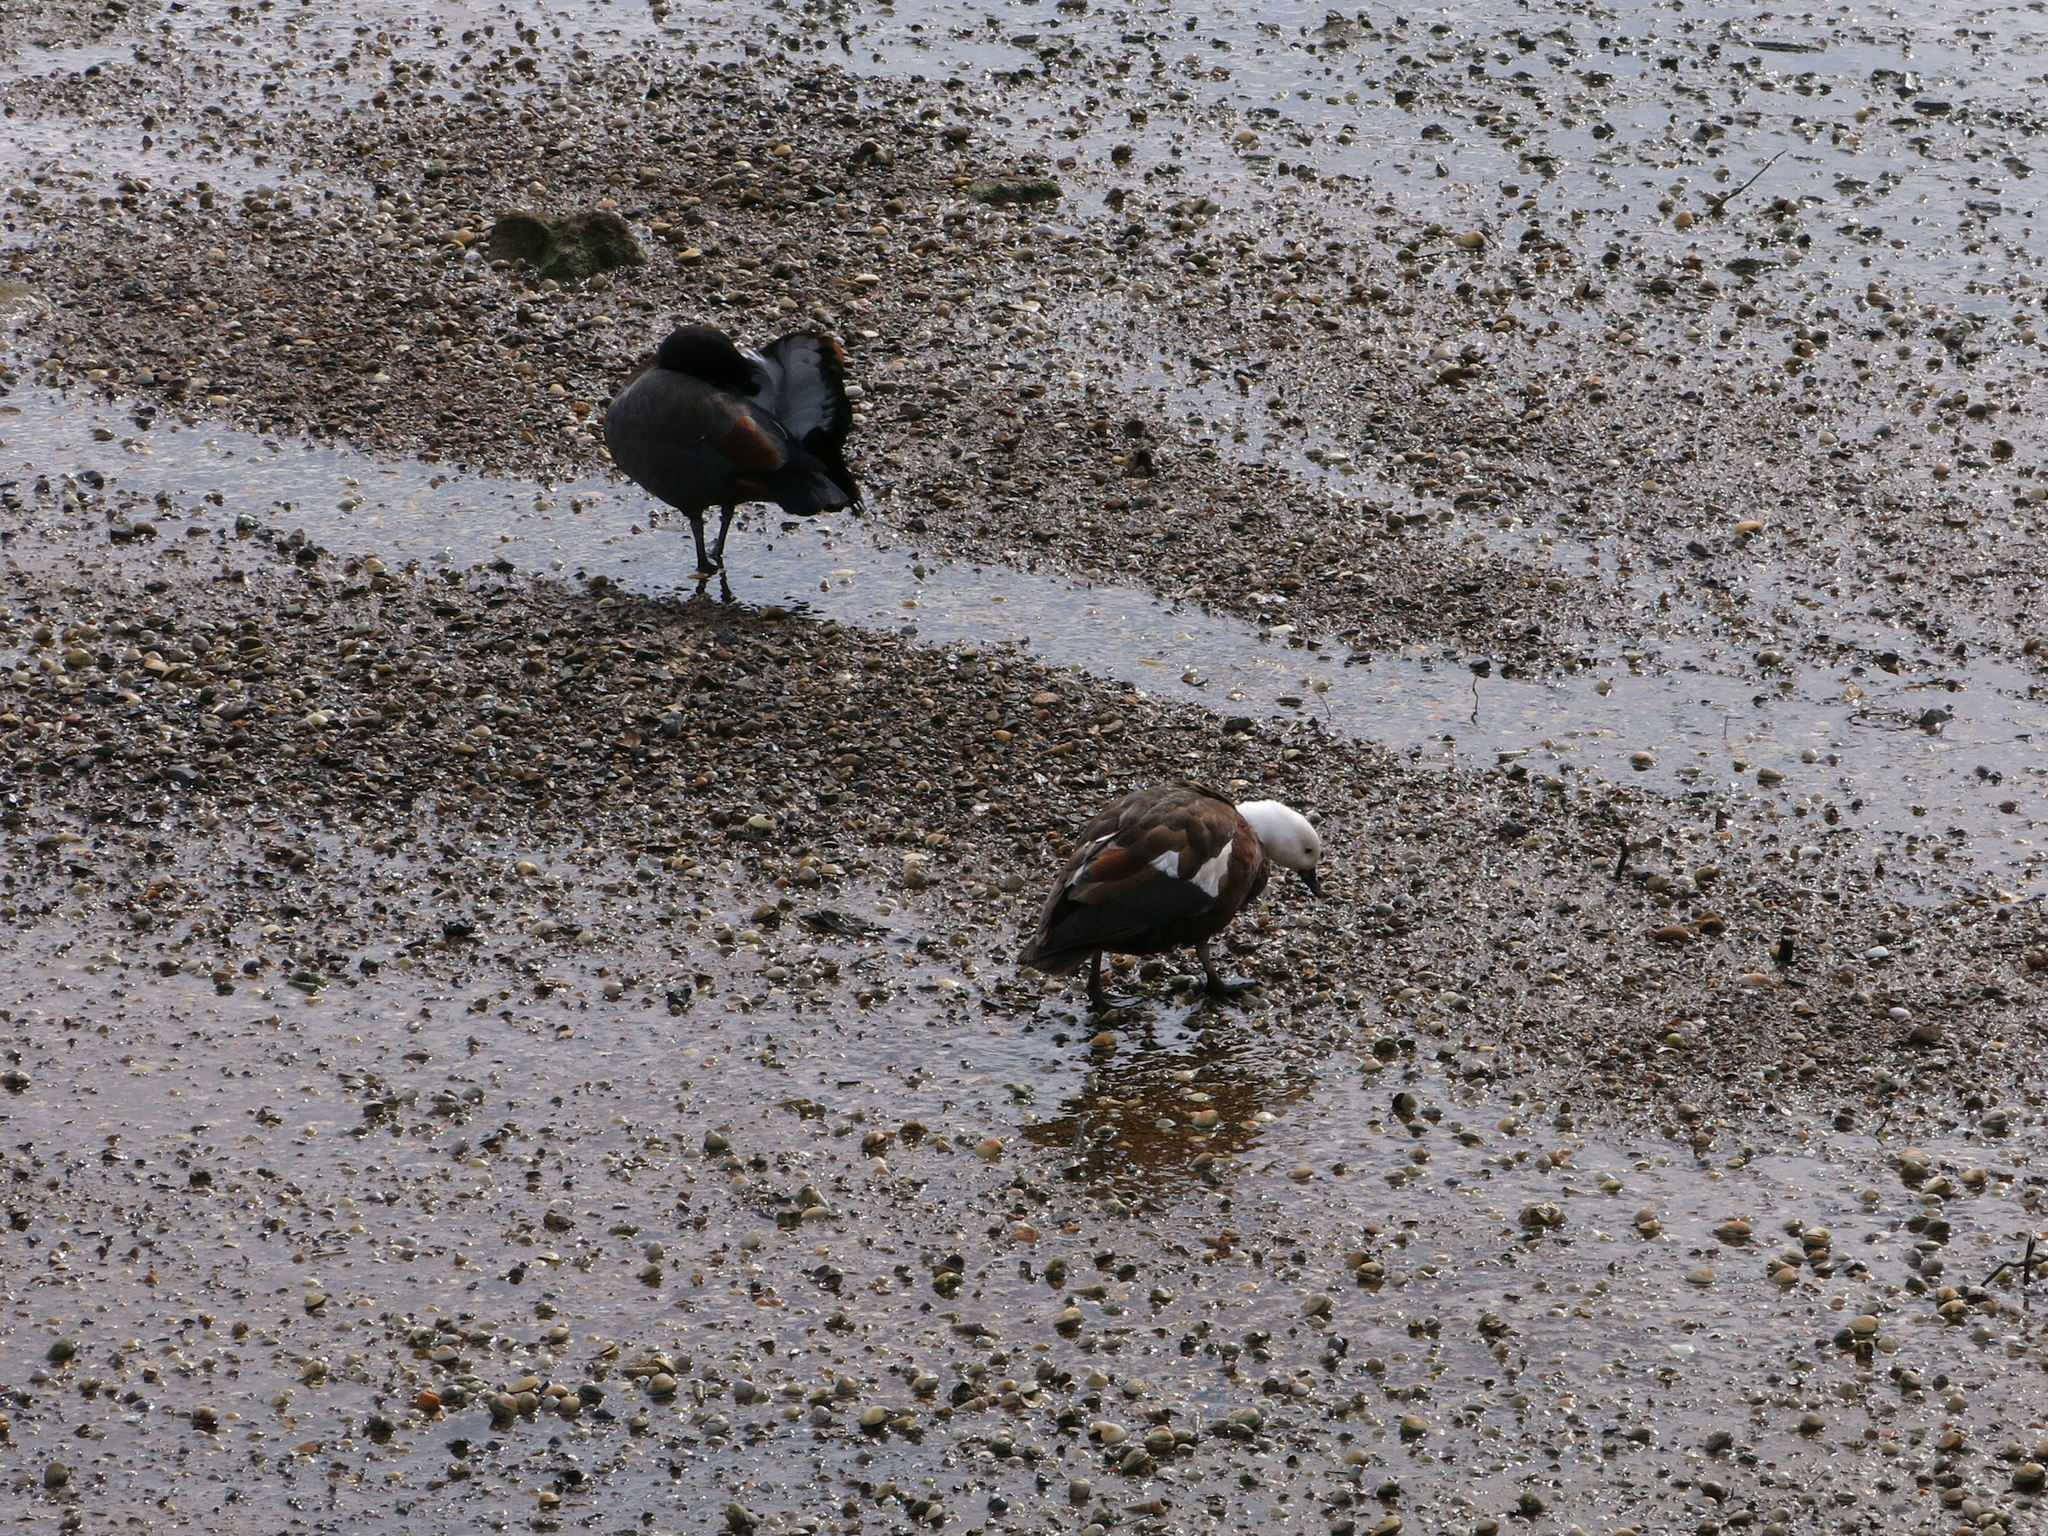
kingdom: Animalia
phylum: Chordata
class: Aves
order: Anseriformes
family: Anatidae
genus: Tadorna
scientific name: Tadorna variegata
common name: Paradise shelduck
